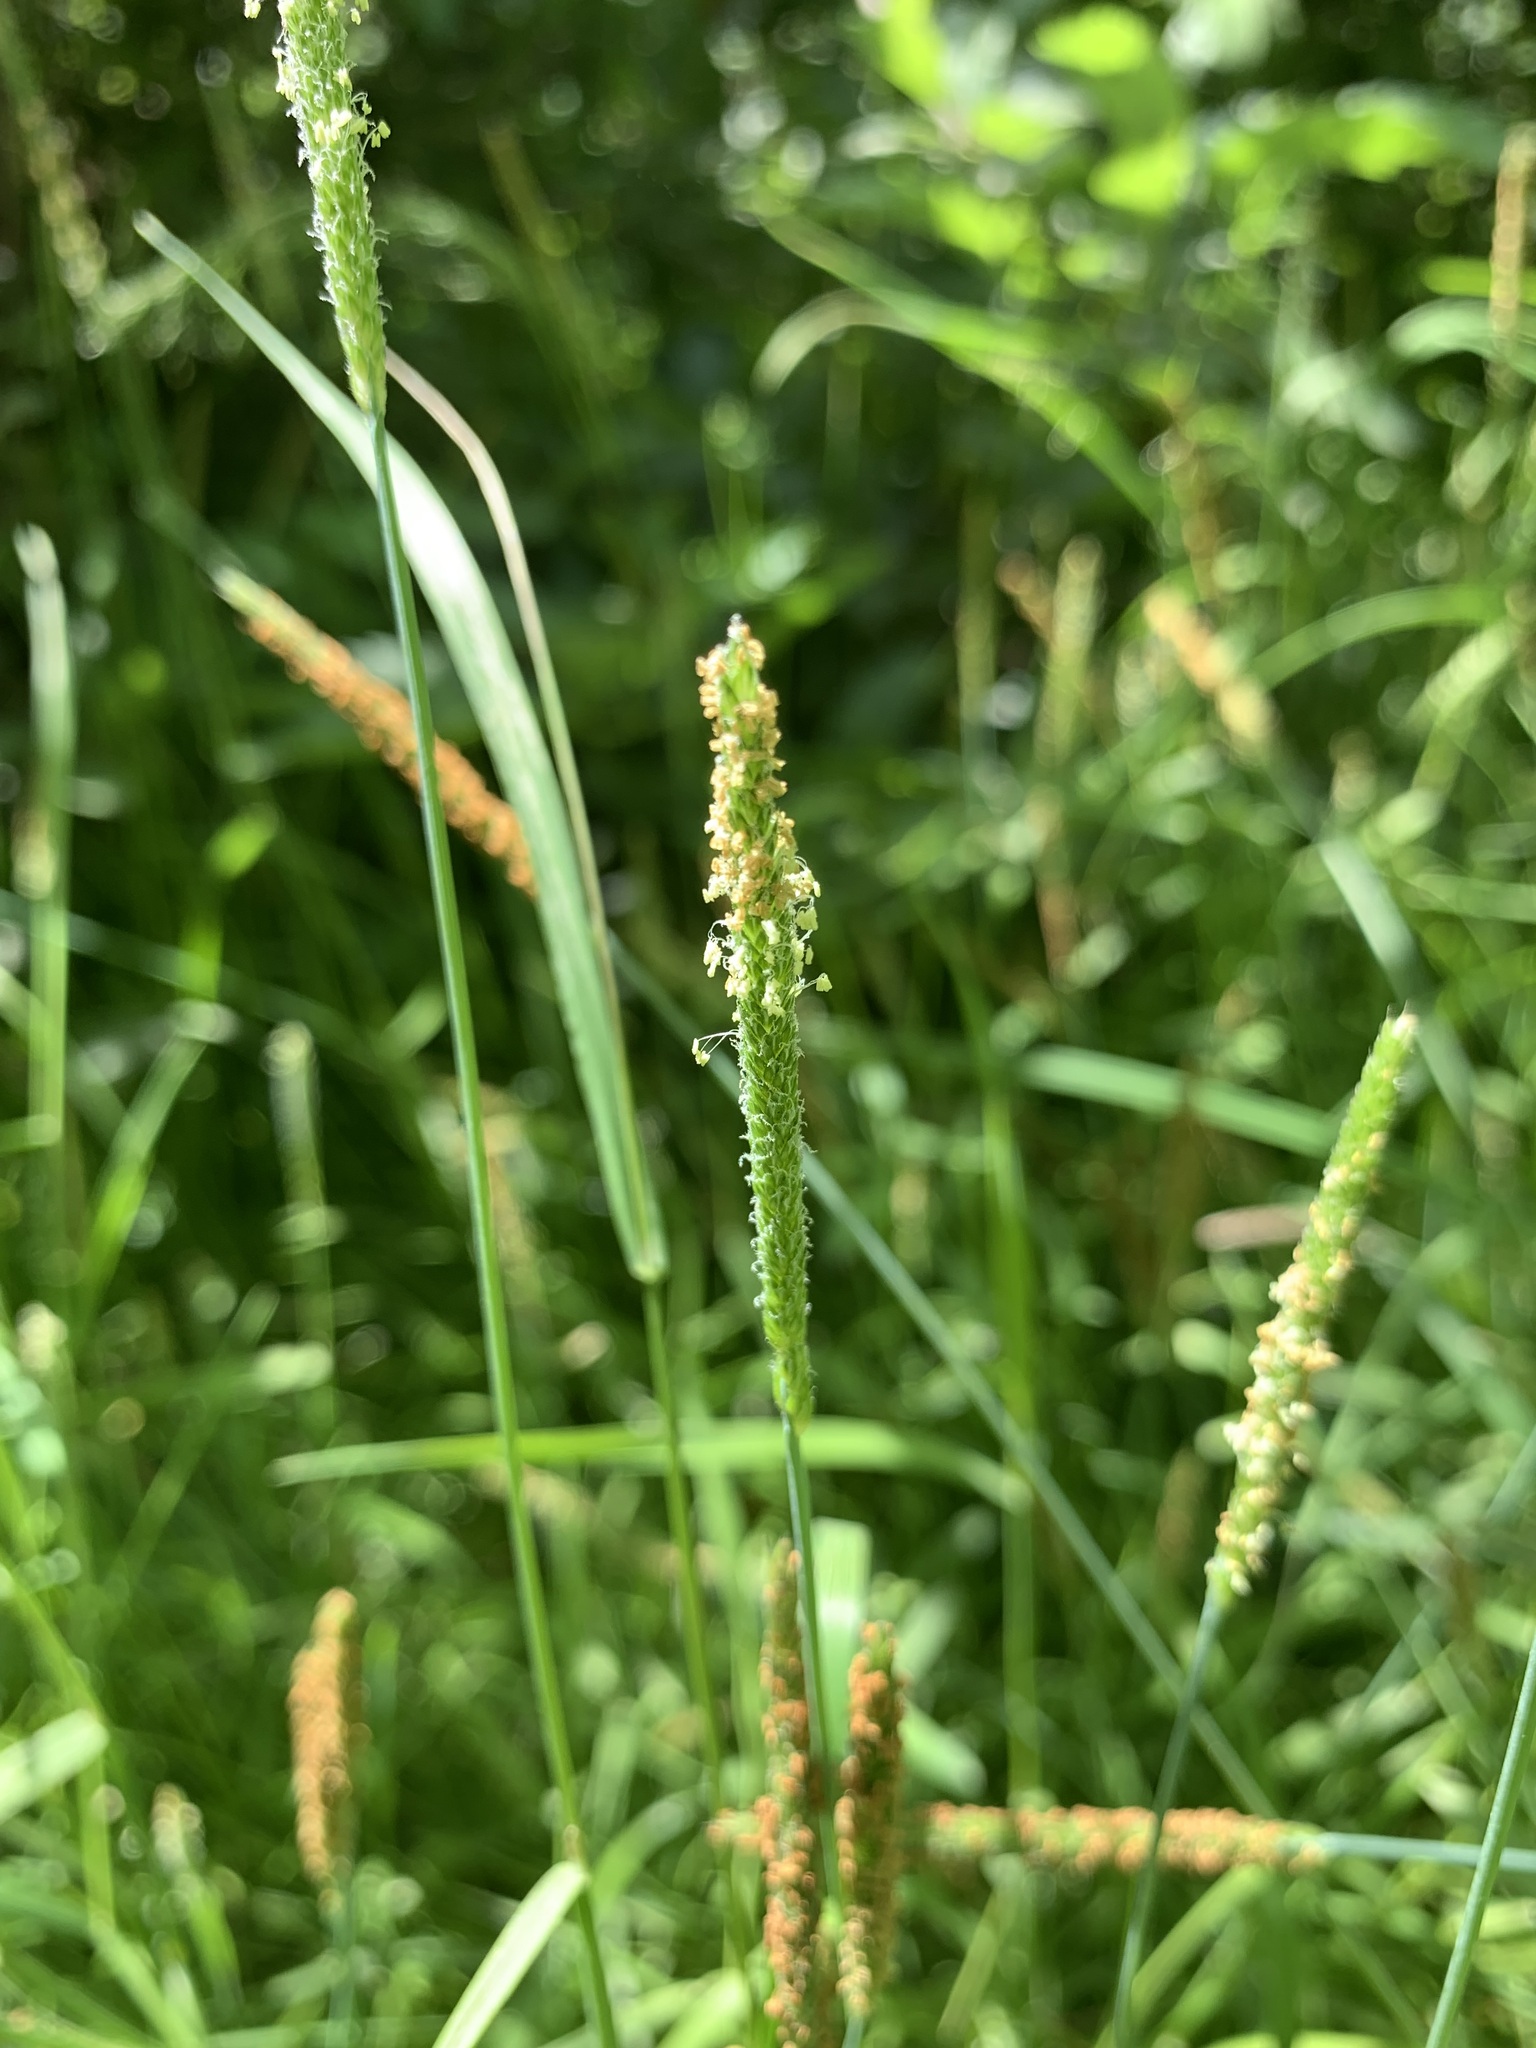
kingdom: Plantae
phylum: Tracheophyta
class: Liliopsida
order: Poales
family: Poaceae
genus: Alopecurus
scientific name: Alopecurus aequalis
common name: Orange foxtail
